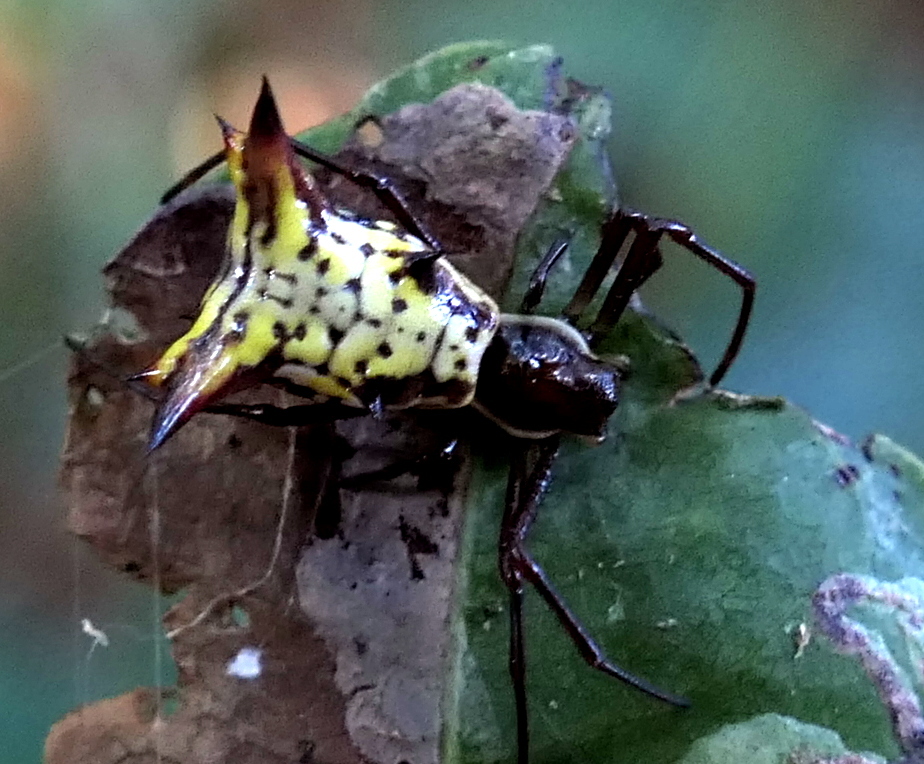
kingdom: Animalia
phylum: Arthropoda
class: Arachnida
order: Araneae
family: Araneidae
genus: Micrathena
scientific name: Micrathena fissispina
